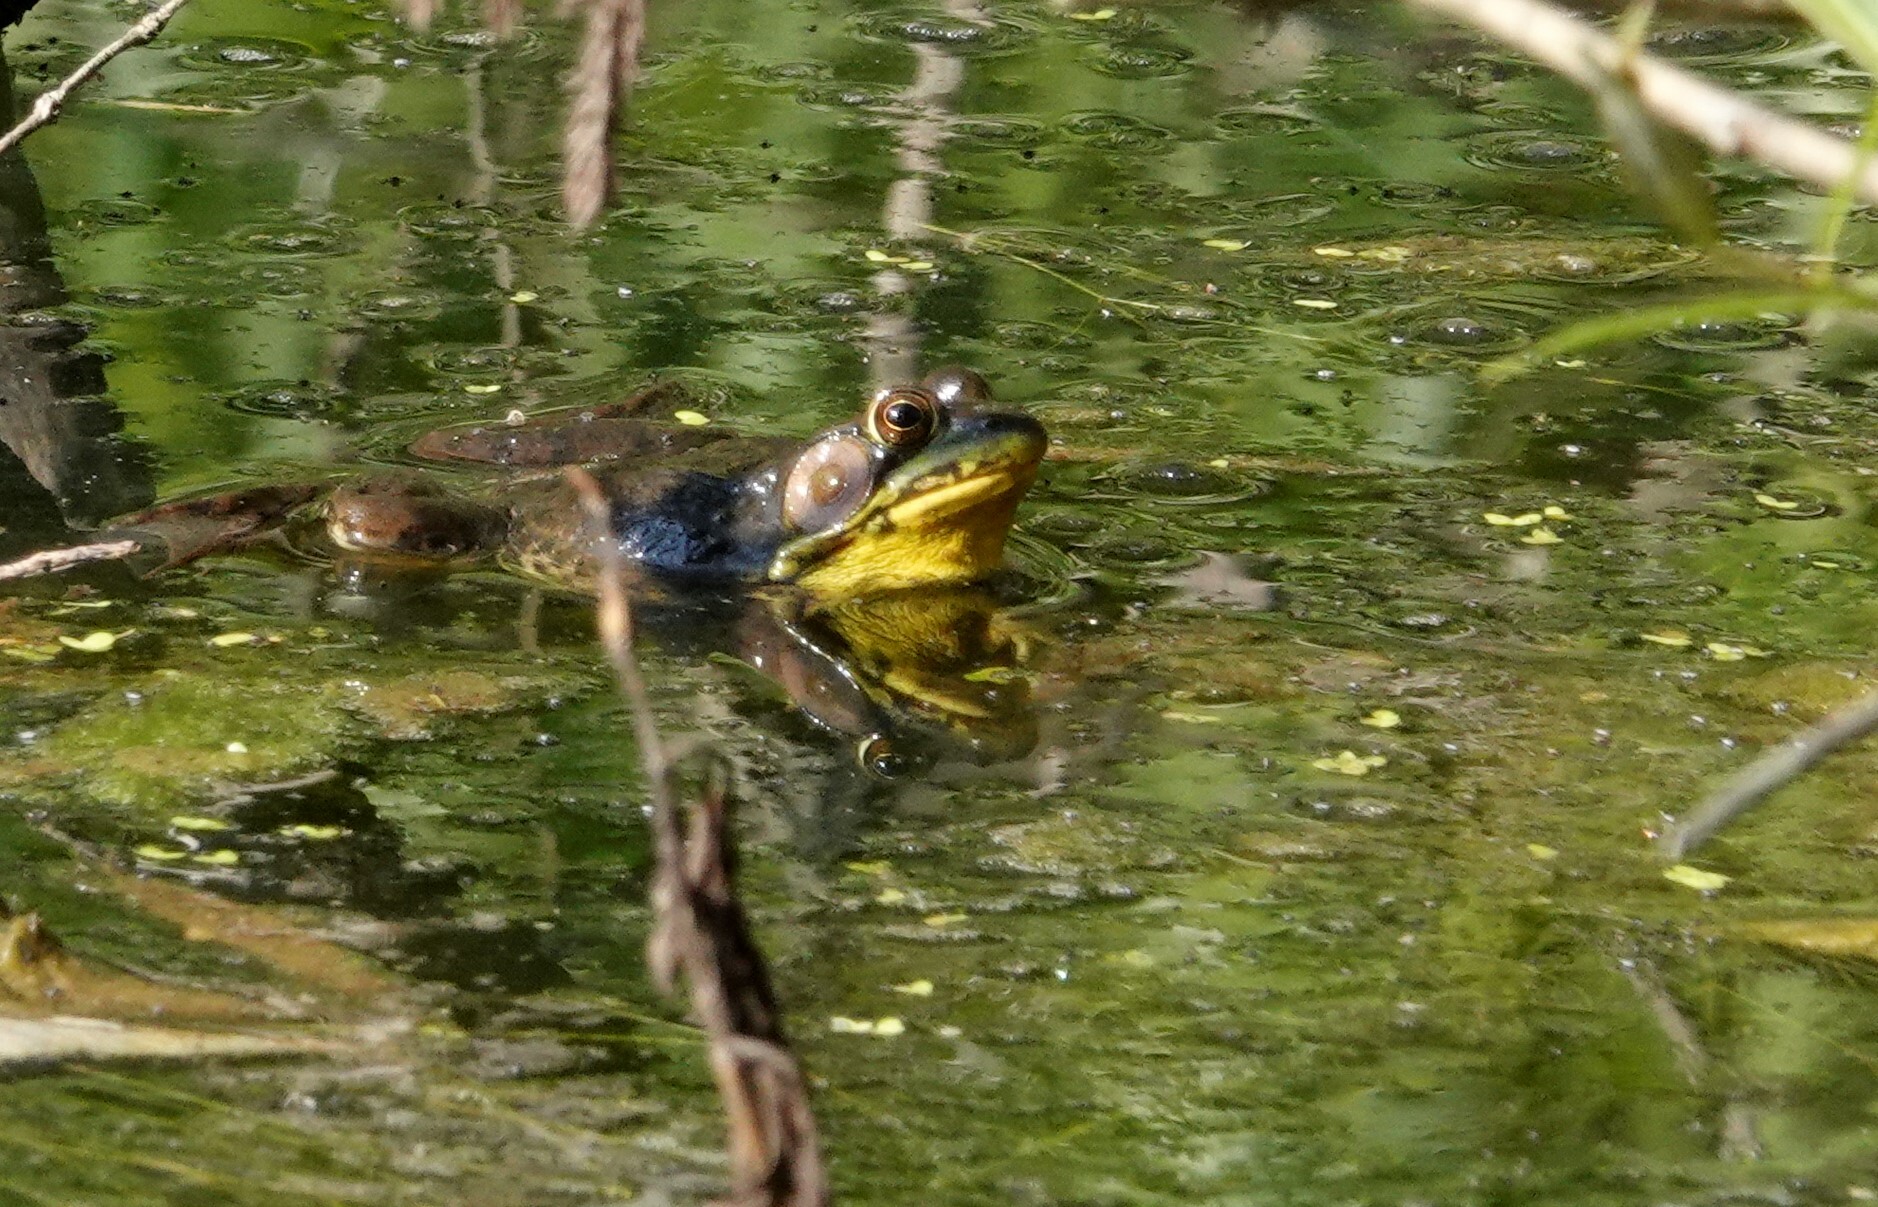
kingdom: Animalia
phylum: Chordata
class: Amphibia
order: Anura
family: Ranidae
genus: Lithobates
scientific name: Lithobates clamitans
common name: Green frog
